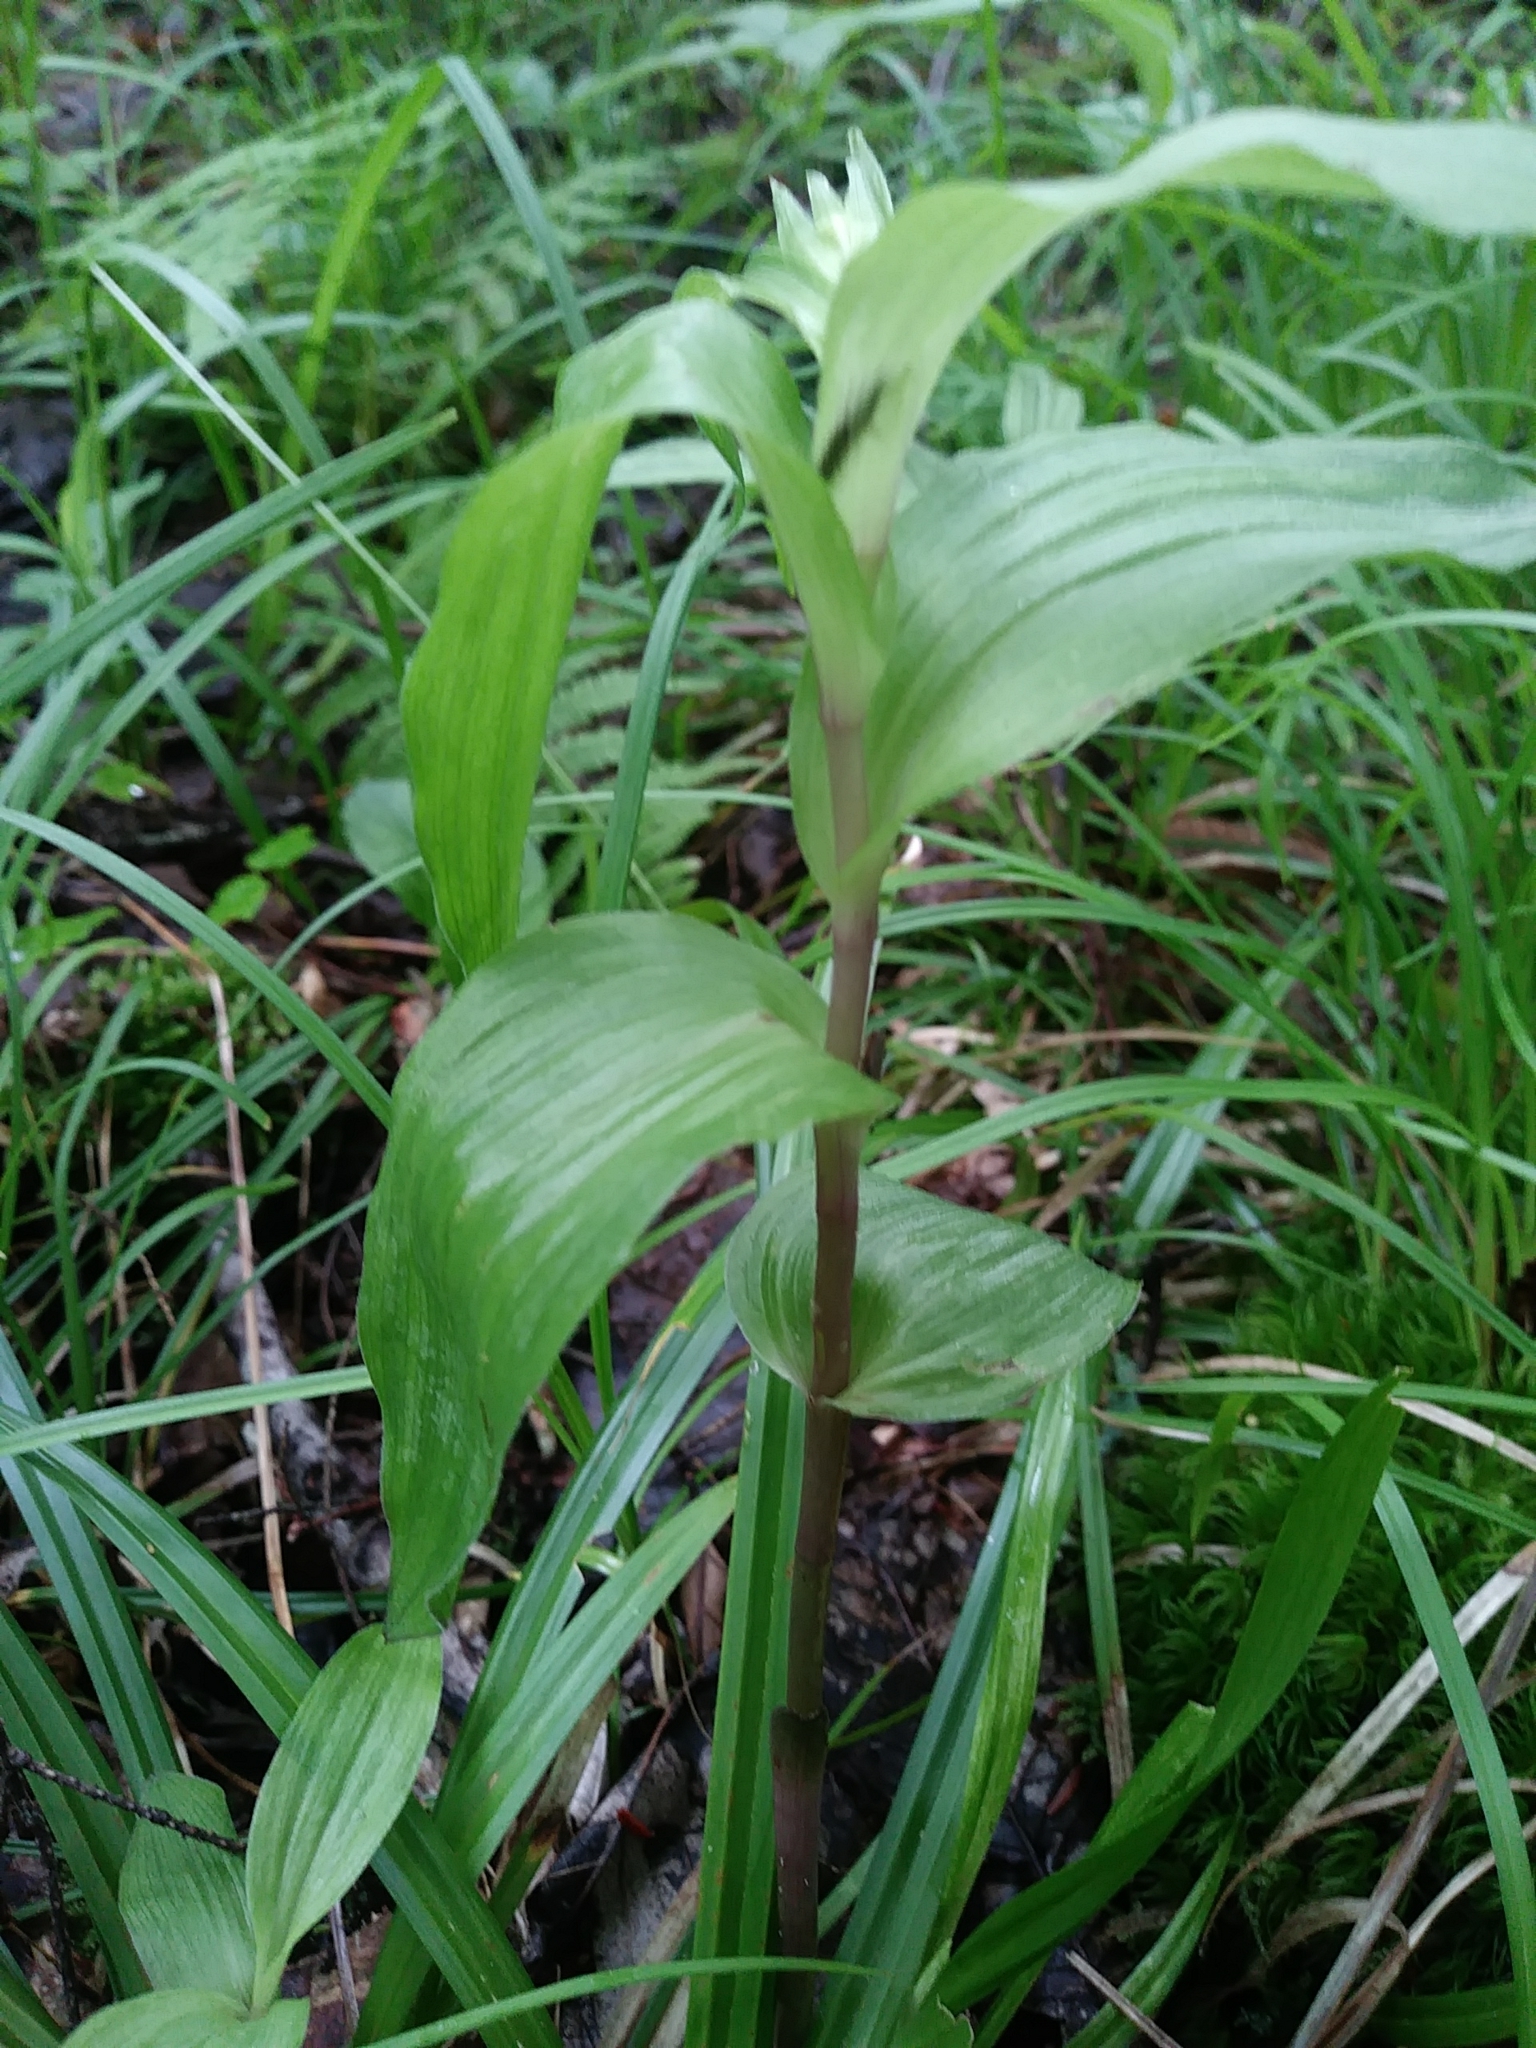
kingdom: Plantae
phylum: Tracheophyta
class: Liliopsida
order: Asparagales
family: Orchidaceae
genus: Epipactis
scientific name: Epipactis helleborine
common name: Broad-leaved helleborine
